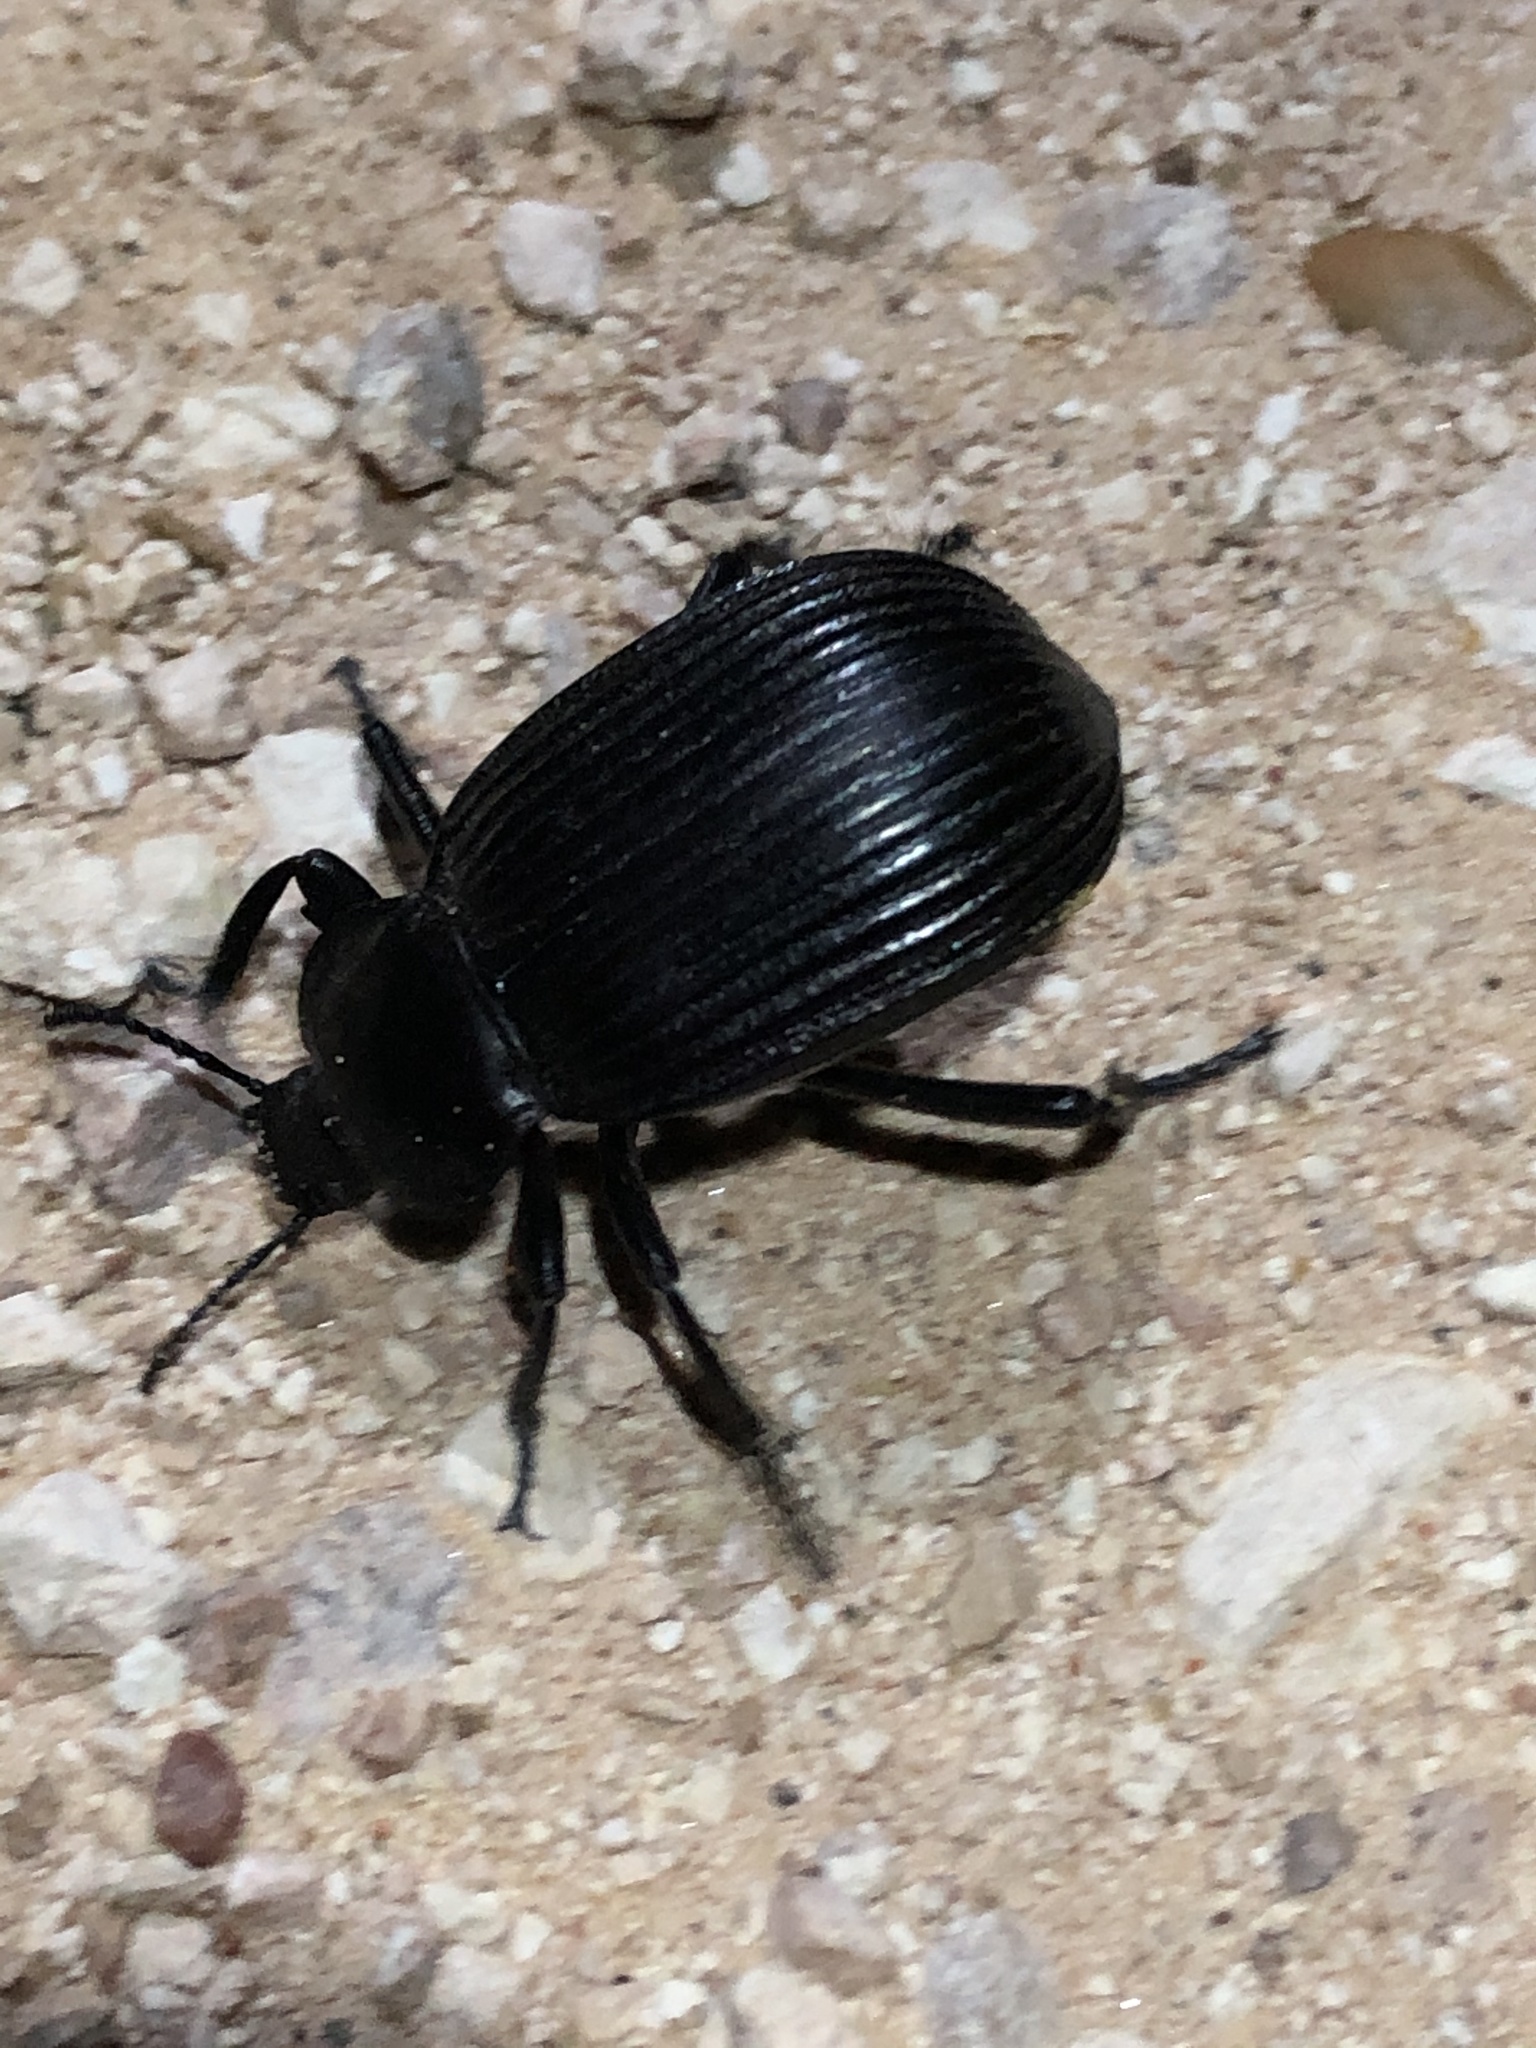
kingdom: Animalia
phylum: Arthropoda
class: Insecta
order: Coleoptera
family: Tenebrionidae
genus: Eleodes
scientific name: Eleodes acuta
